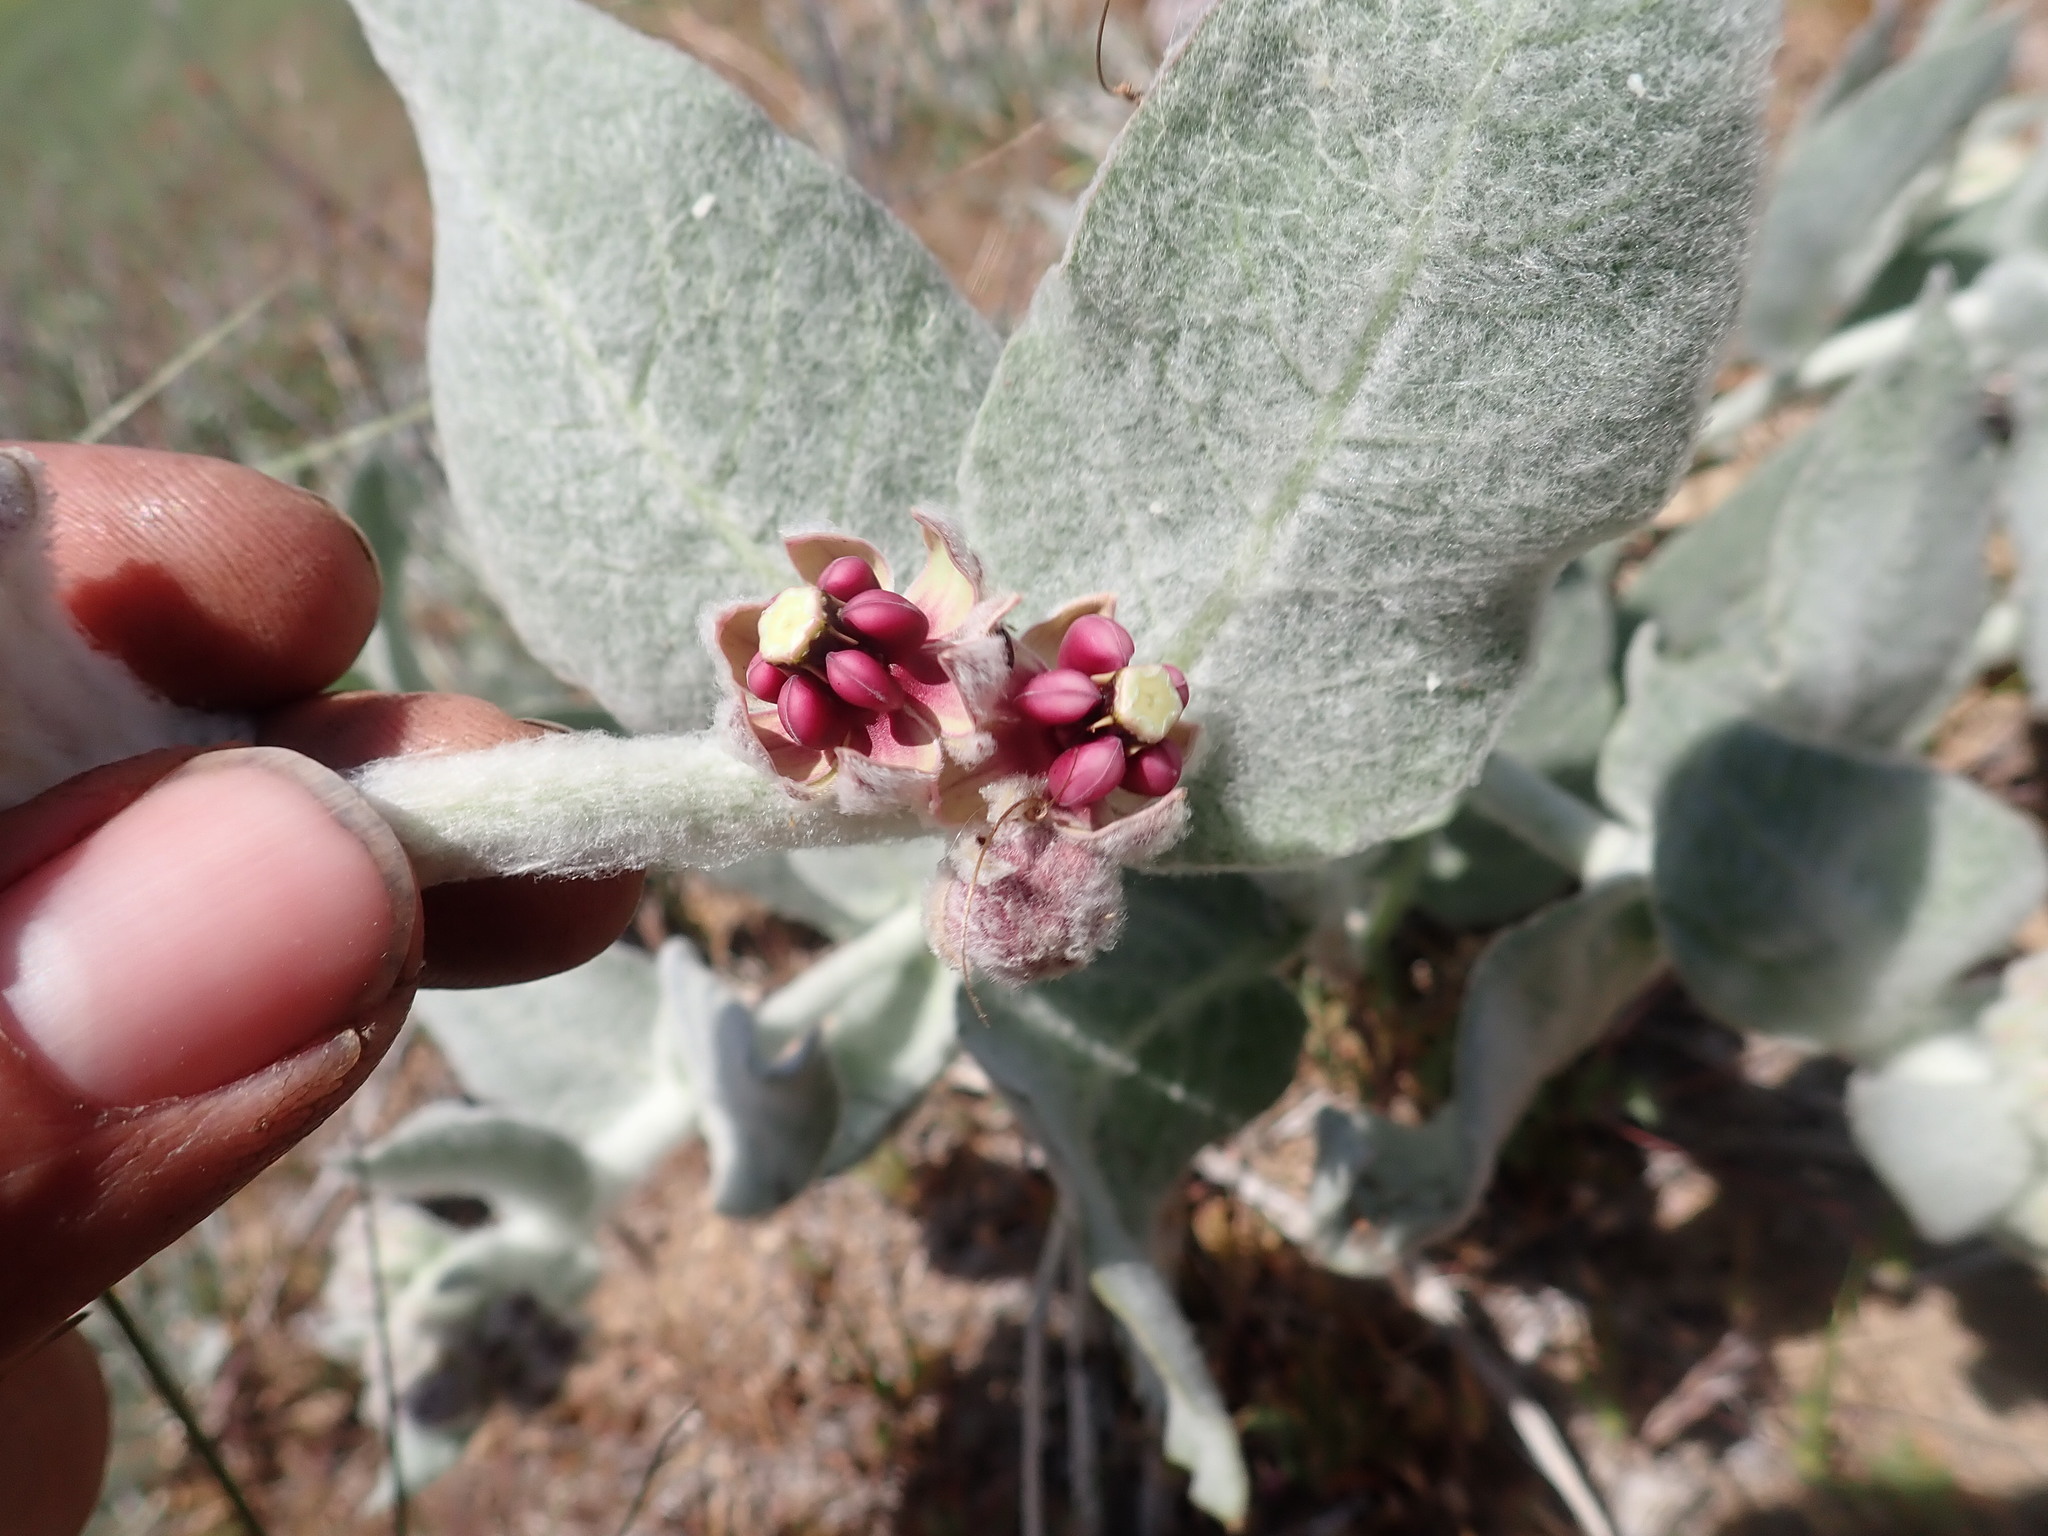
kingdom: Plantae
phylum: Tracheophyta
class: Magnoliopsida
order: Gentianales
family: Apocynaceae
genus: Asclepias
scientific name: Asclepias californica
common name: California milkweed
